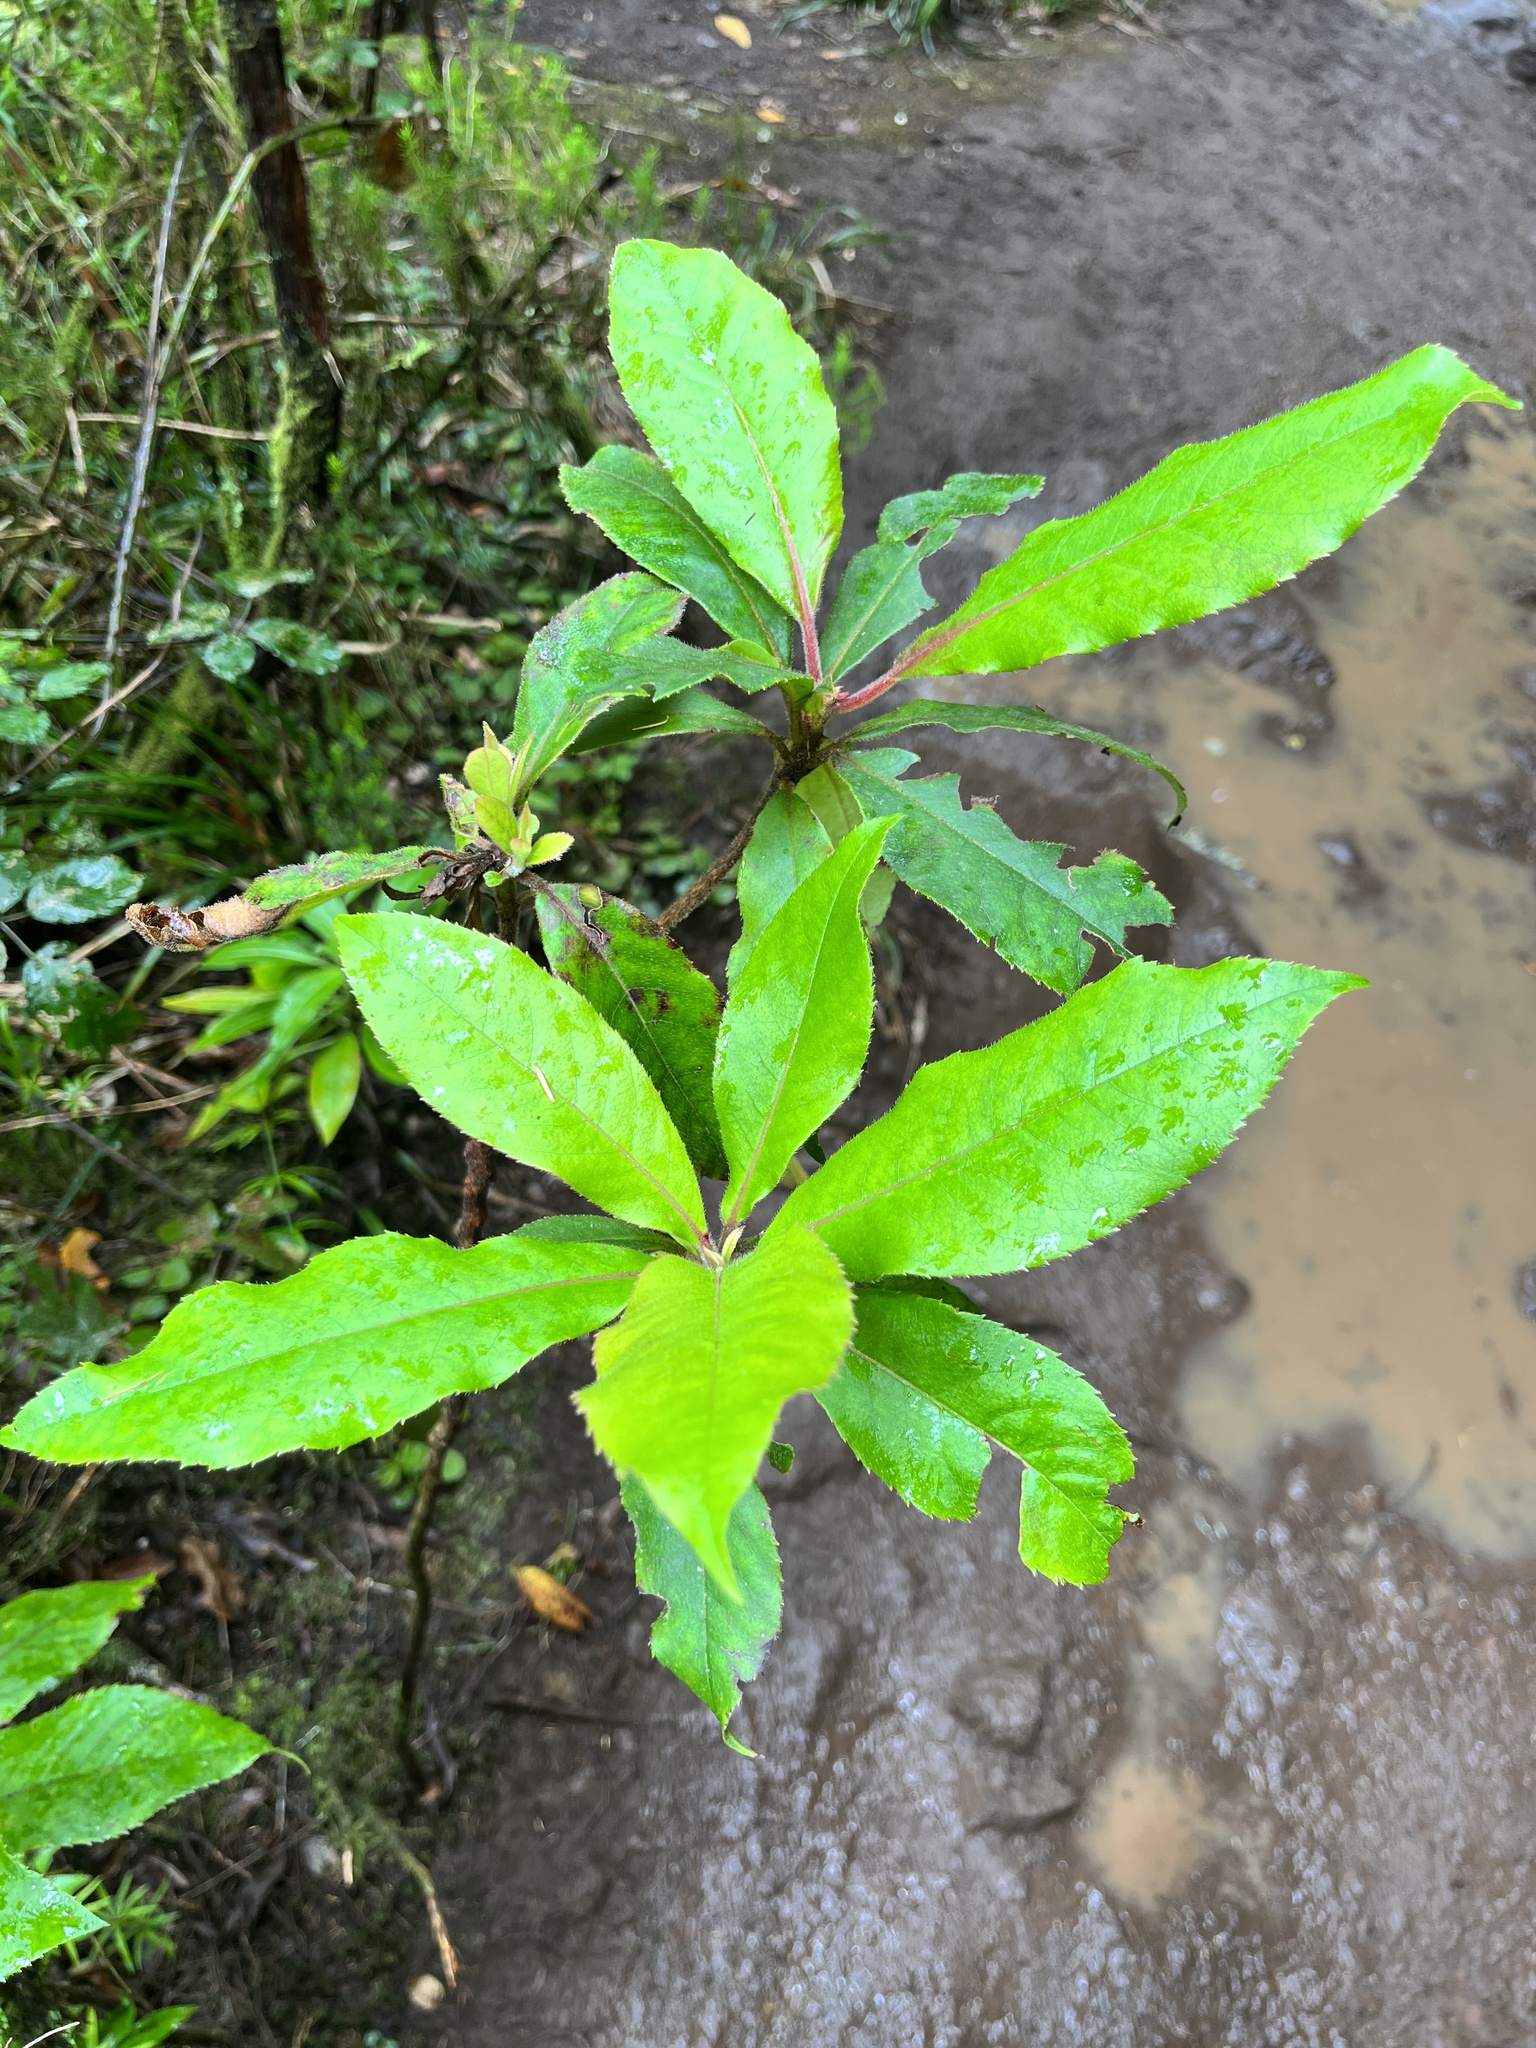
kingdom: Plantae
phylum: Tracheophyta
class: Magnoliopsida
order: Ericales
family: Clethraceae
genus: Clethra
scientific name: Clethra arborea
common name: Lily-of-the-valley-tree
